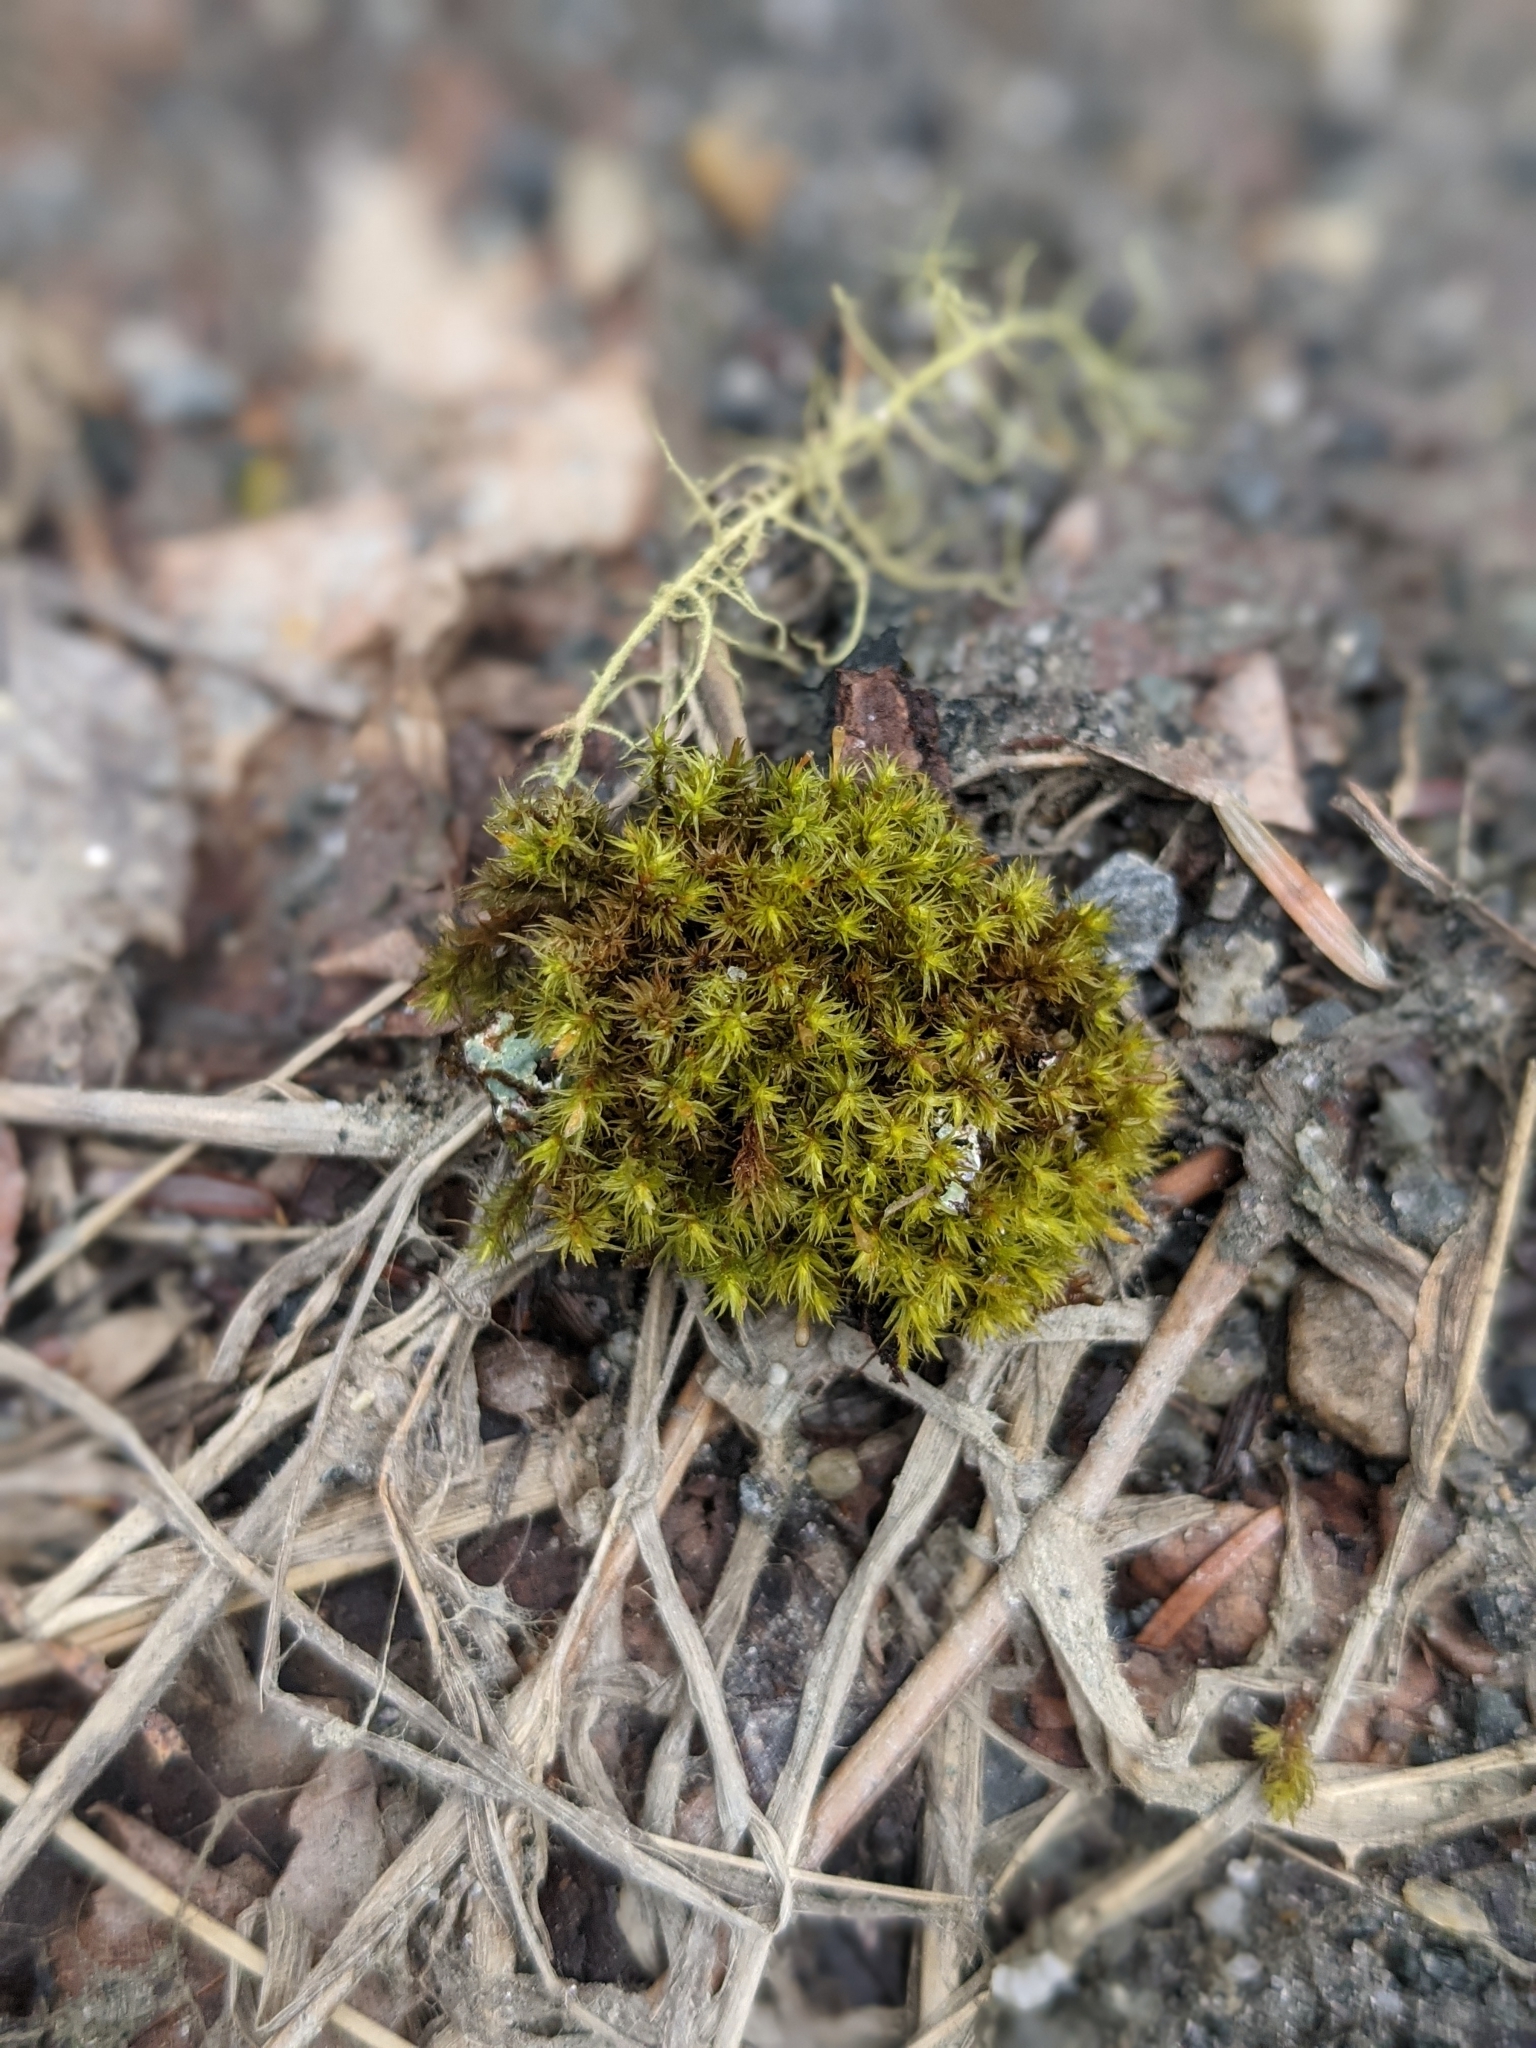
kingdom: Plantae
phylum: Bryophyta
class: Bryopsida
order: Orthotrichales
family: Orthotrichaceae
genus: Ulota
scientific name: Ulota crispa
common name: Crisped pincushion moss
